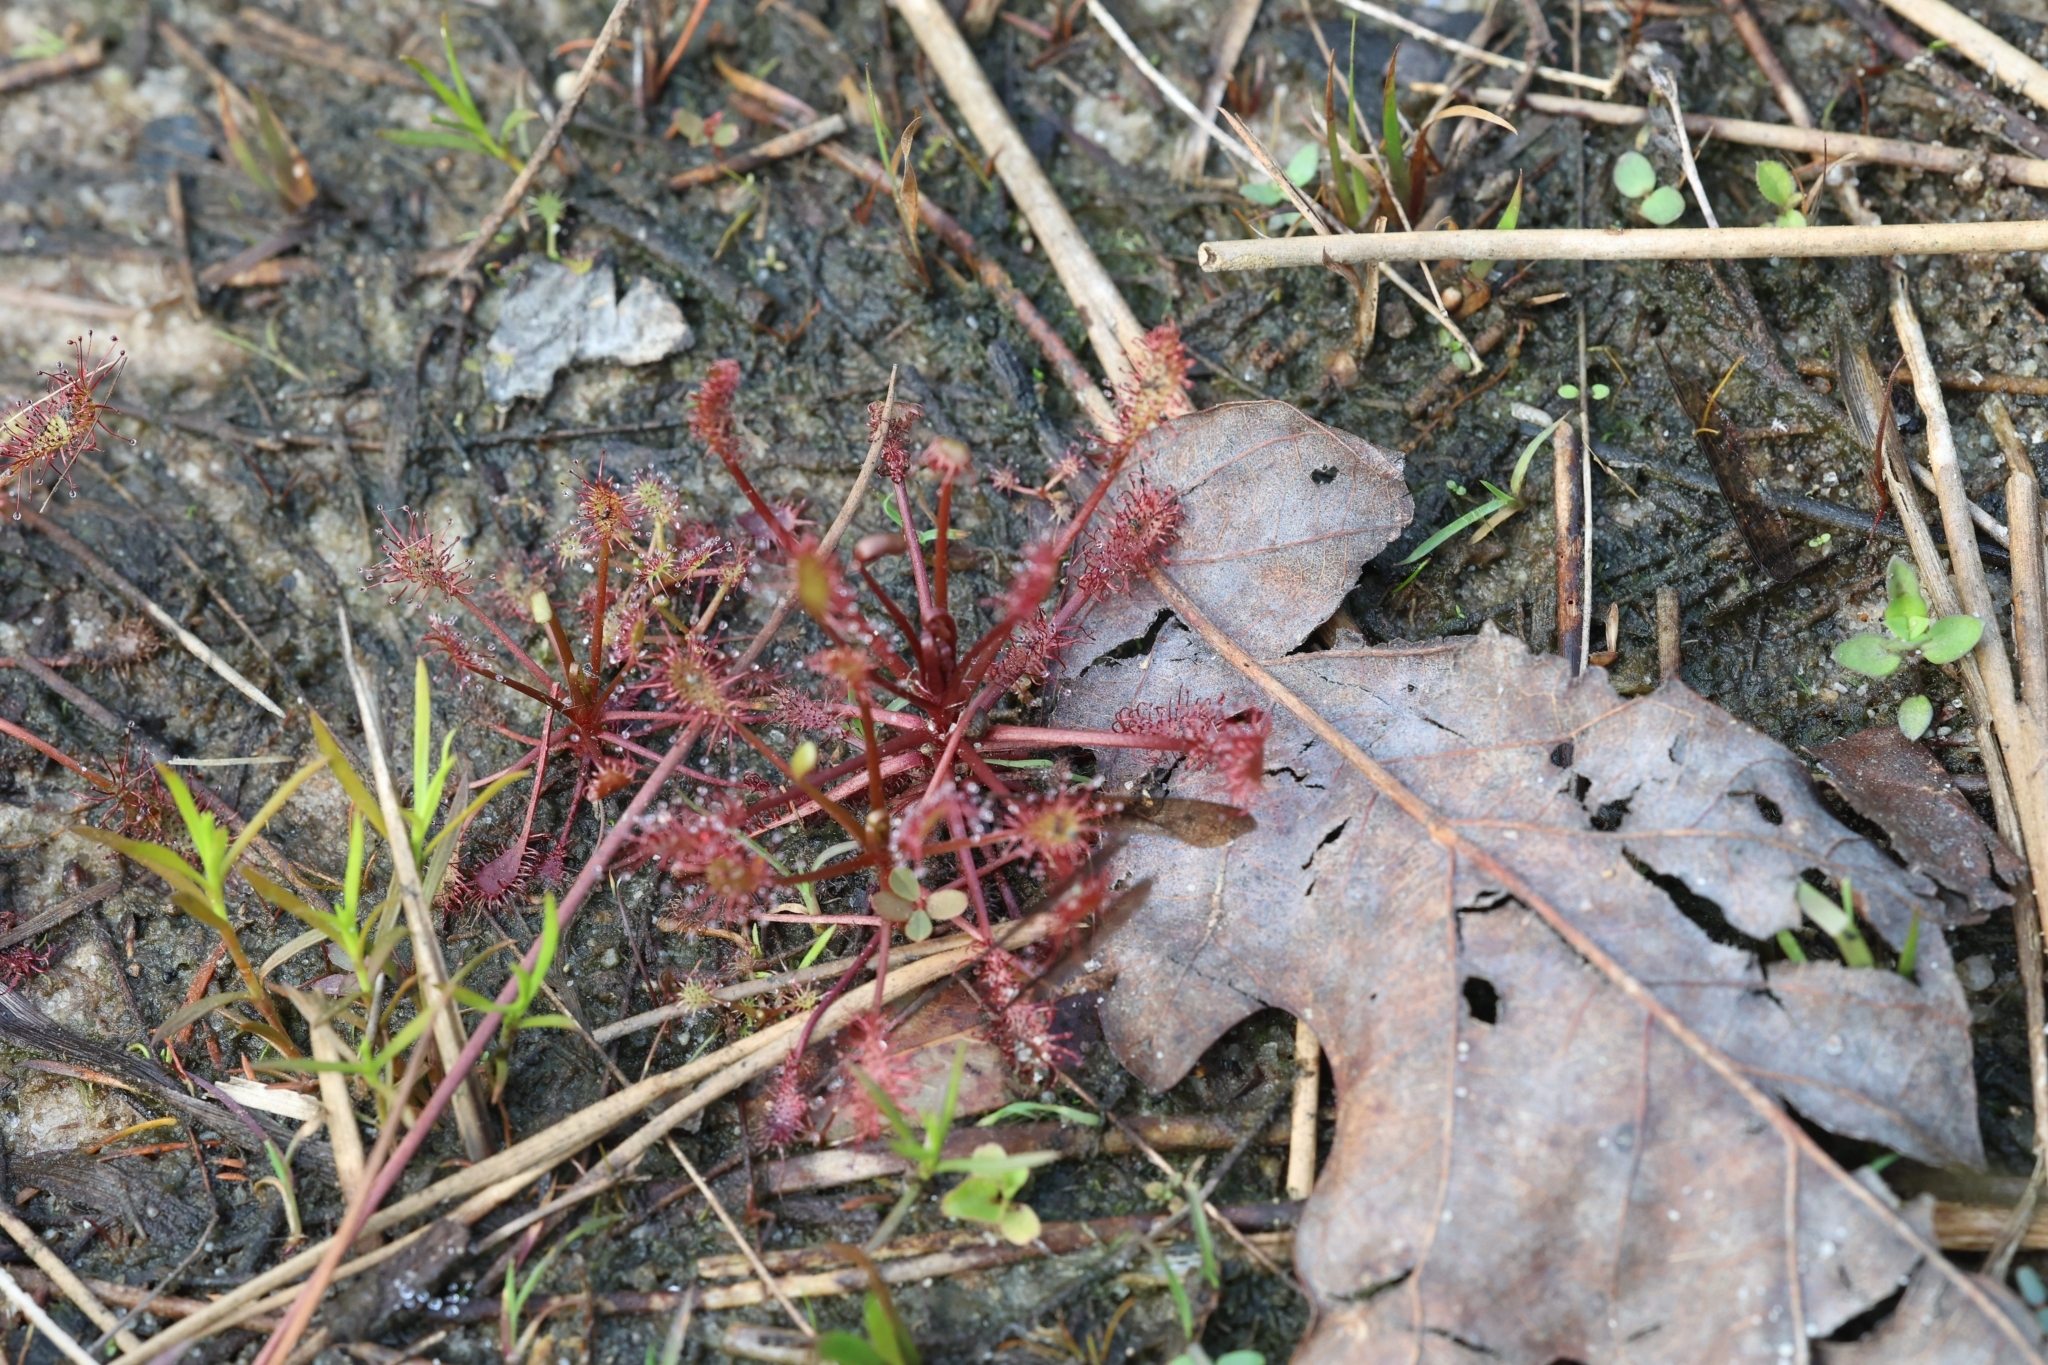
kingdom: Plantae
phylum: Tracheophyta
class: Magnoliopsida
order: Caryophyllales
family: Droseraceae
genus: Drosera
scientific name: Drosera intermedia
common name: Oblong-leaved sundew
